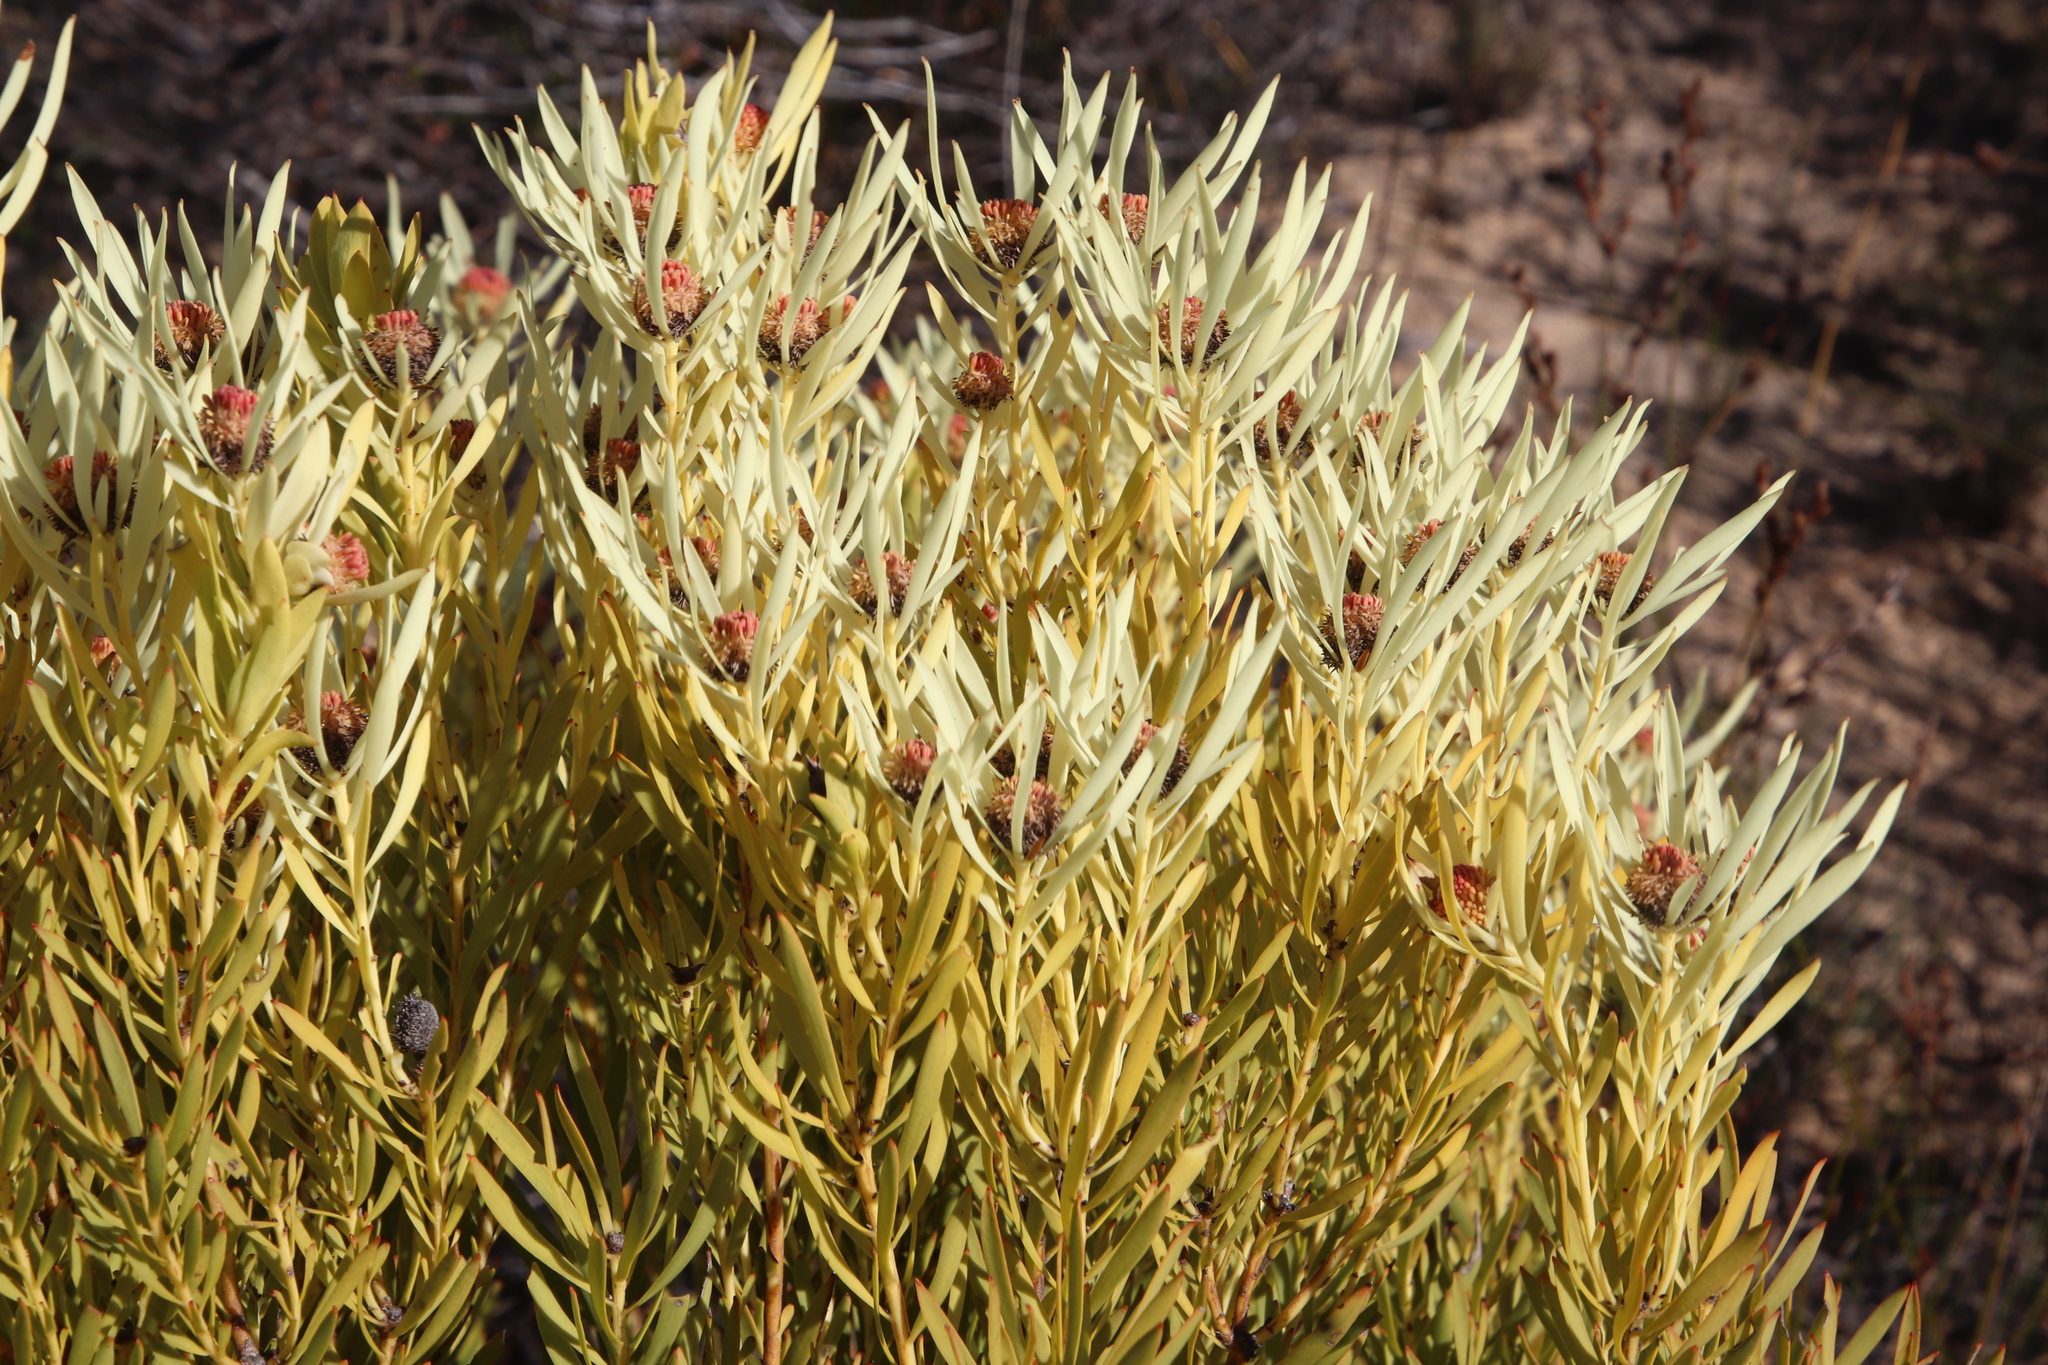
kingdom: Plantae
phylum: Tracheophyta
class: Magnoliopsida
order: Proteales
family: Proteaceae
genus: Leucadendron
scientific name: Leucadendron salignum
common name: Common sunshine conebush
